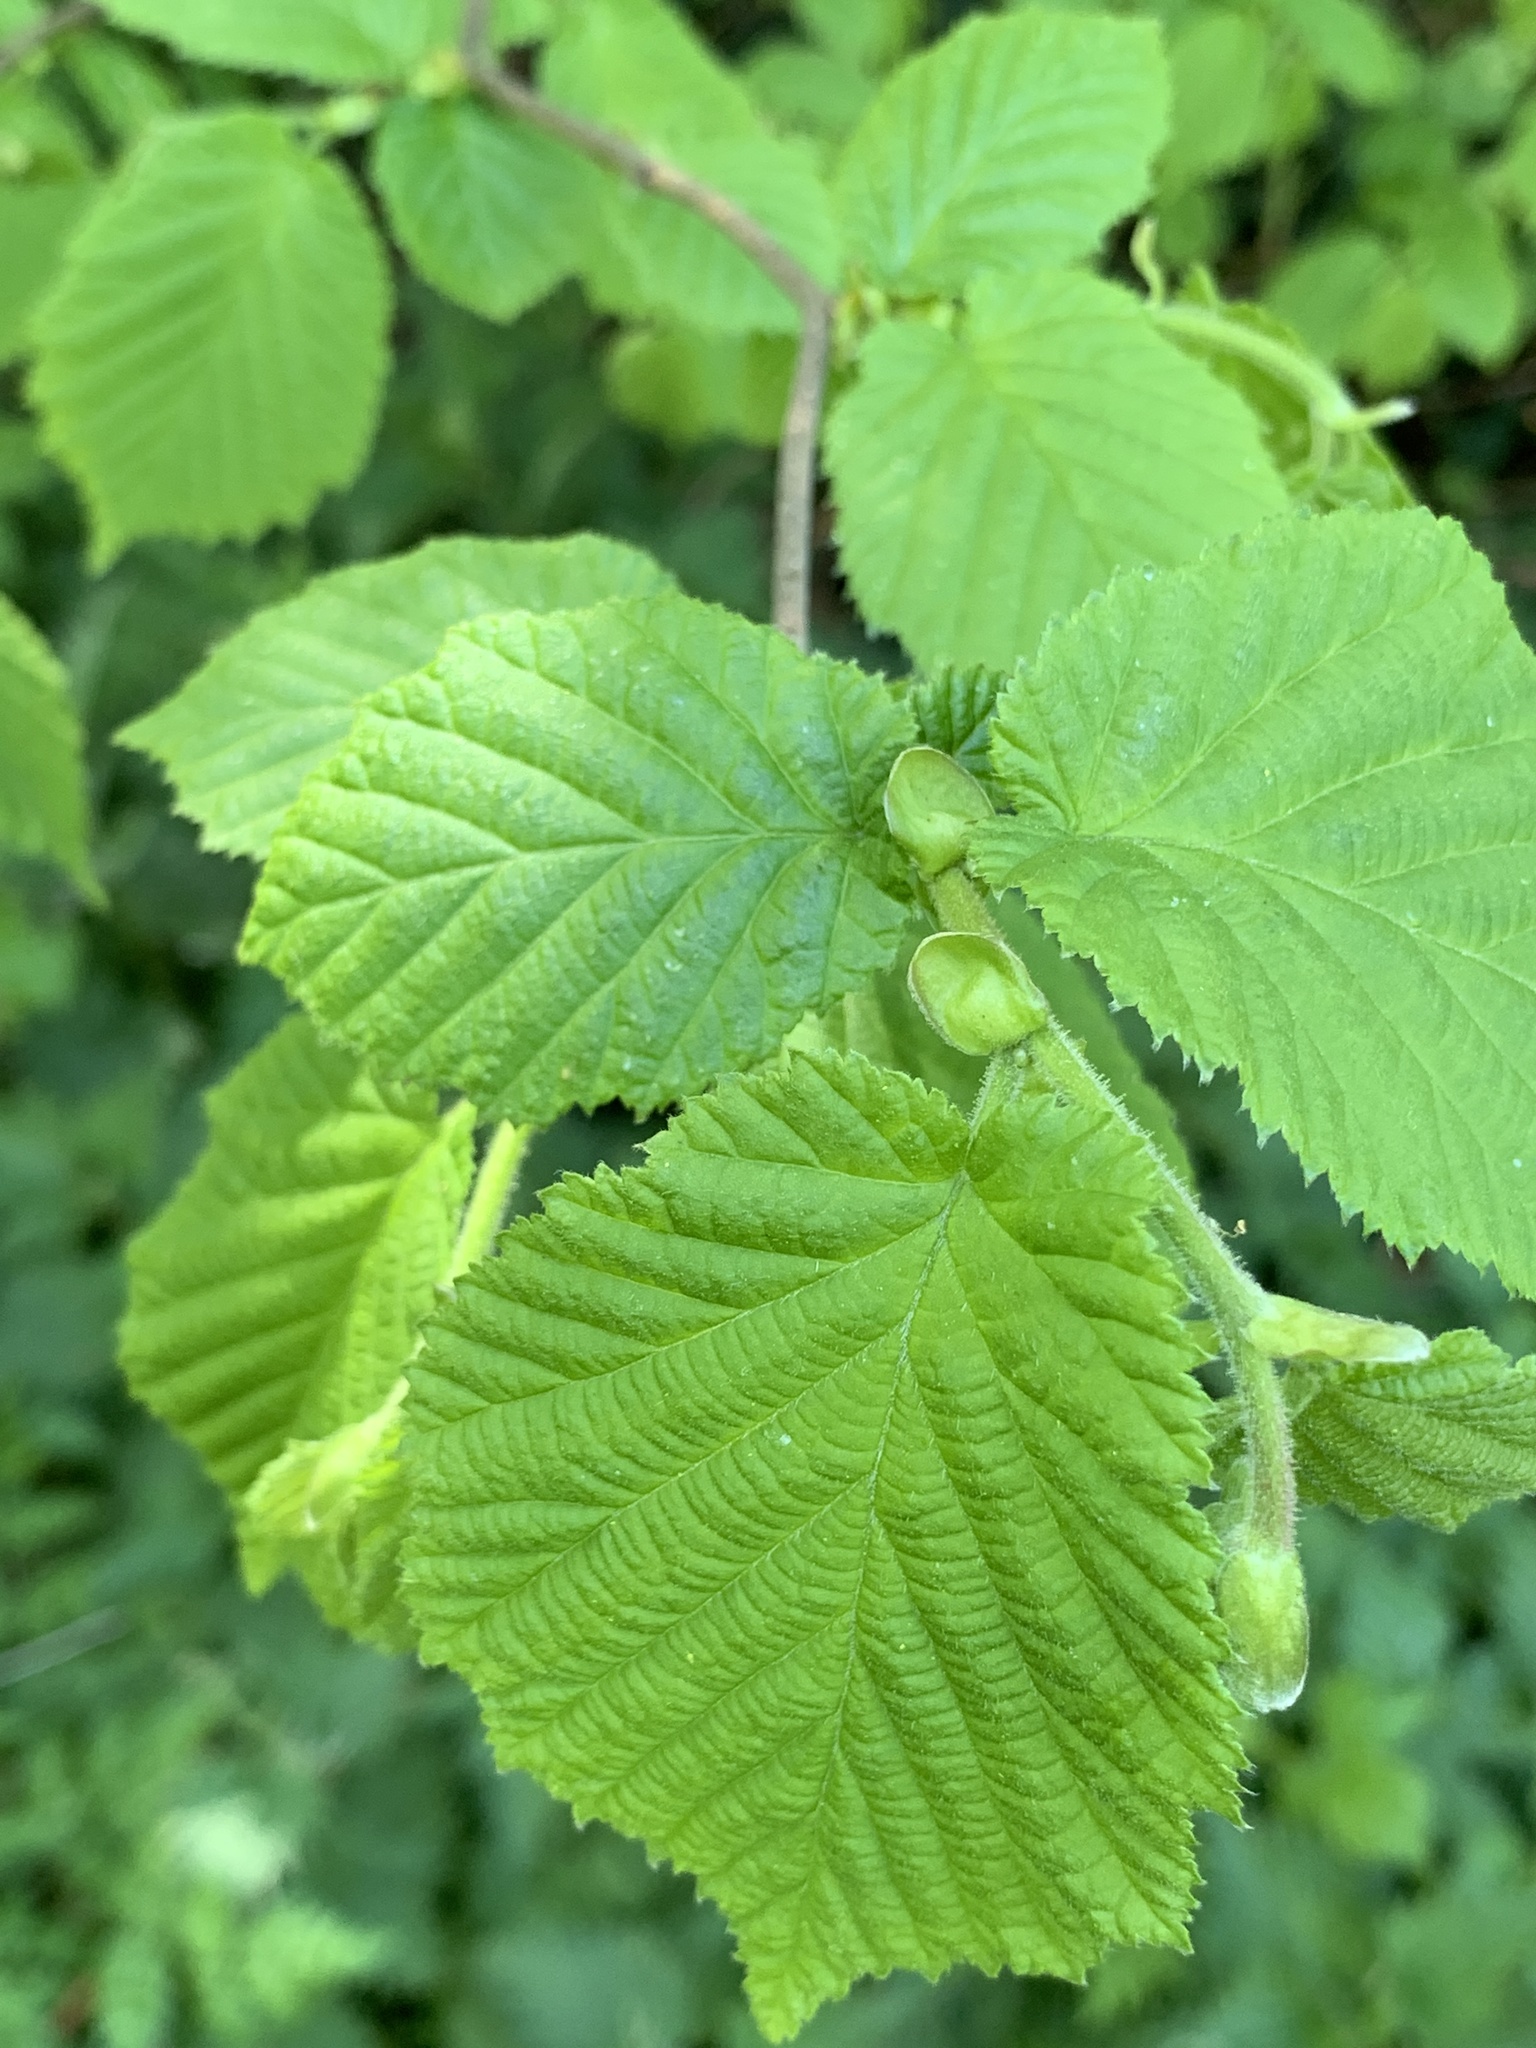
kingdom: Plantae
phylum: Tracheophyta
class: Magnoliopsida
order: Fagales
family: Betulaceae
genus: Corylus
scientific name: Corylus avellana
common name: European hazel
